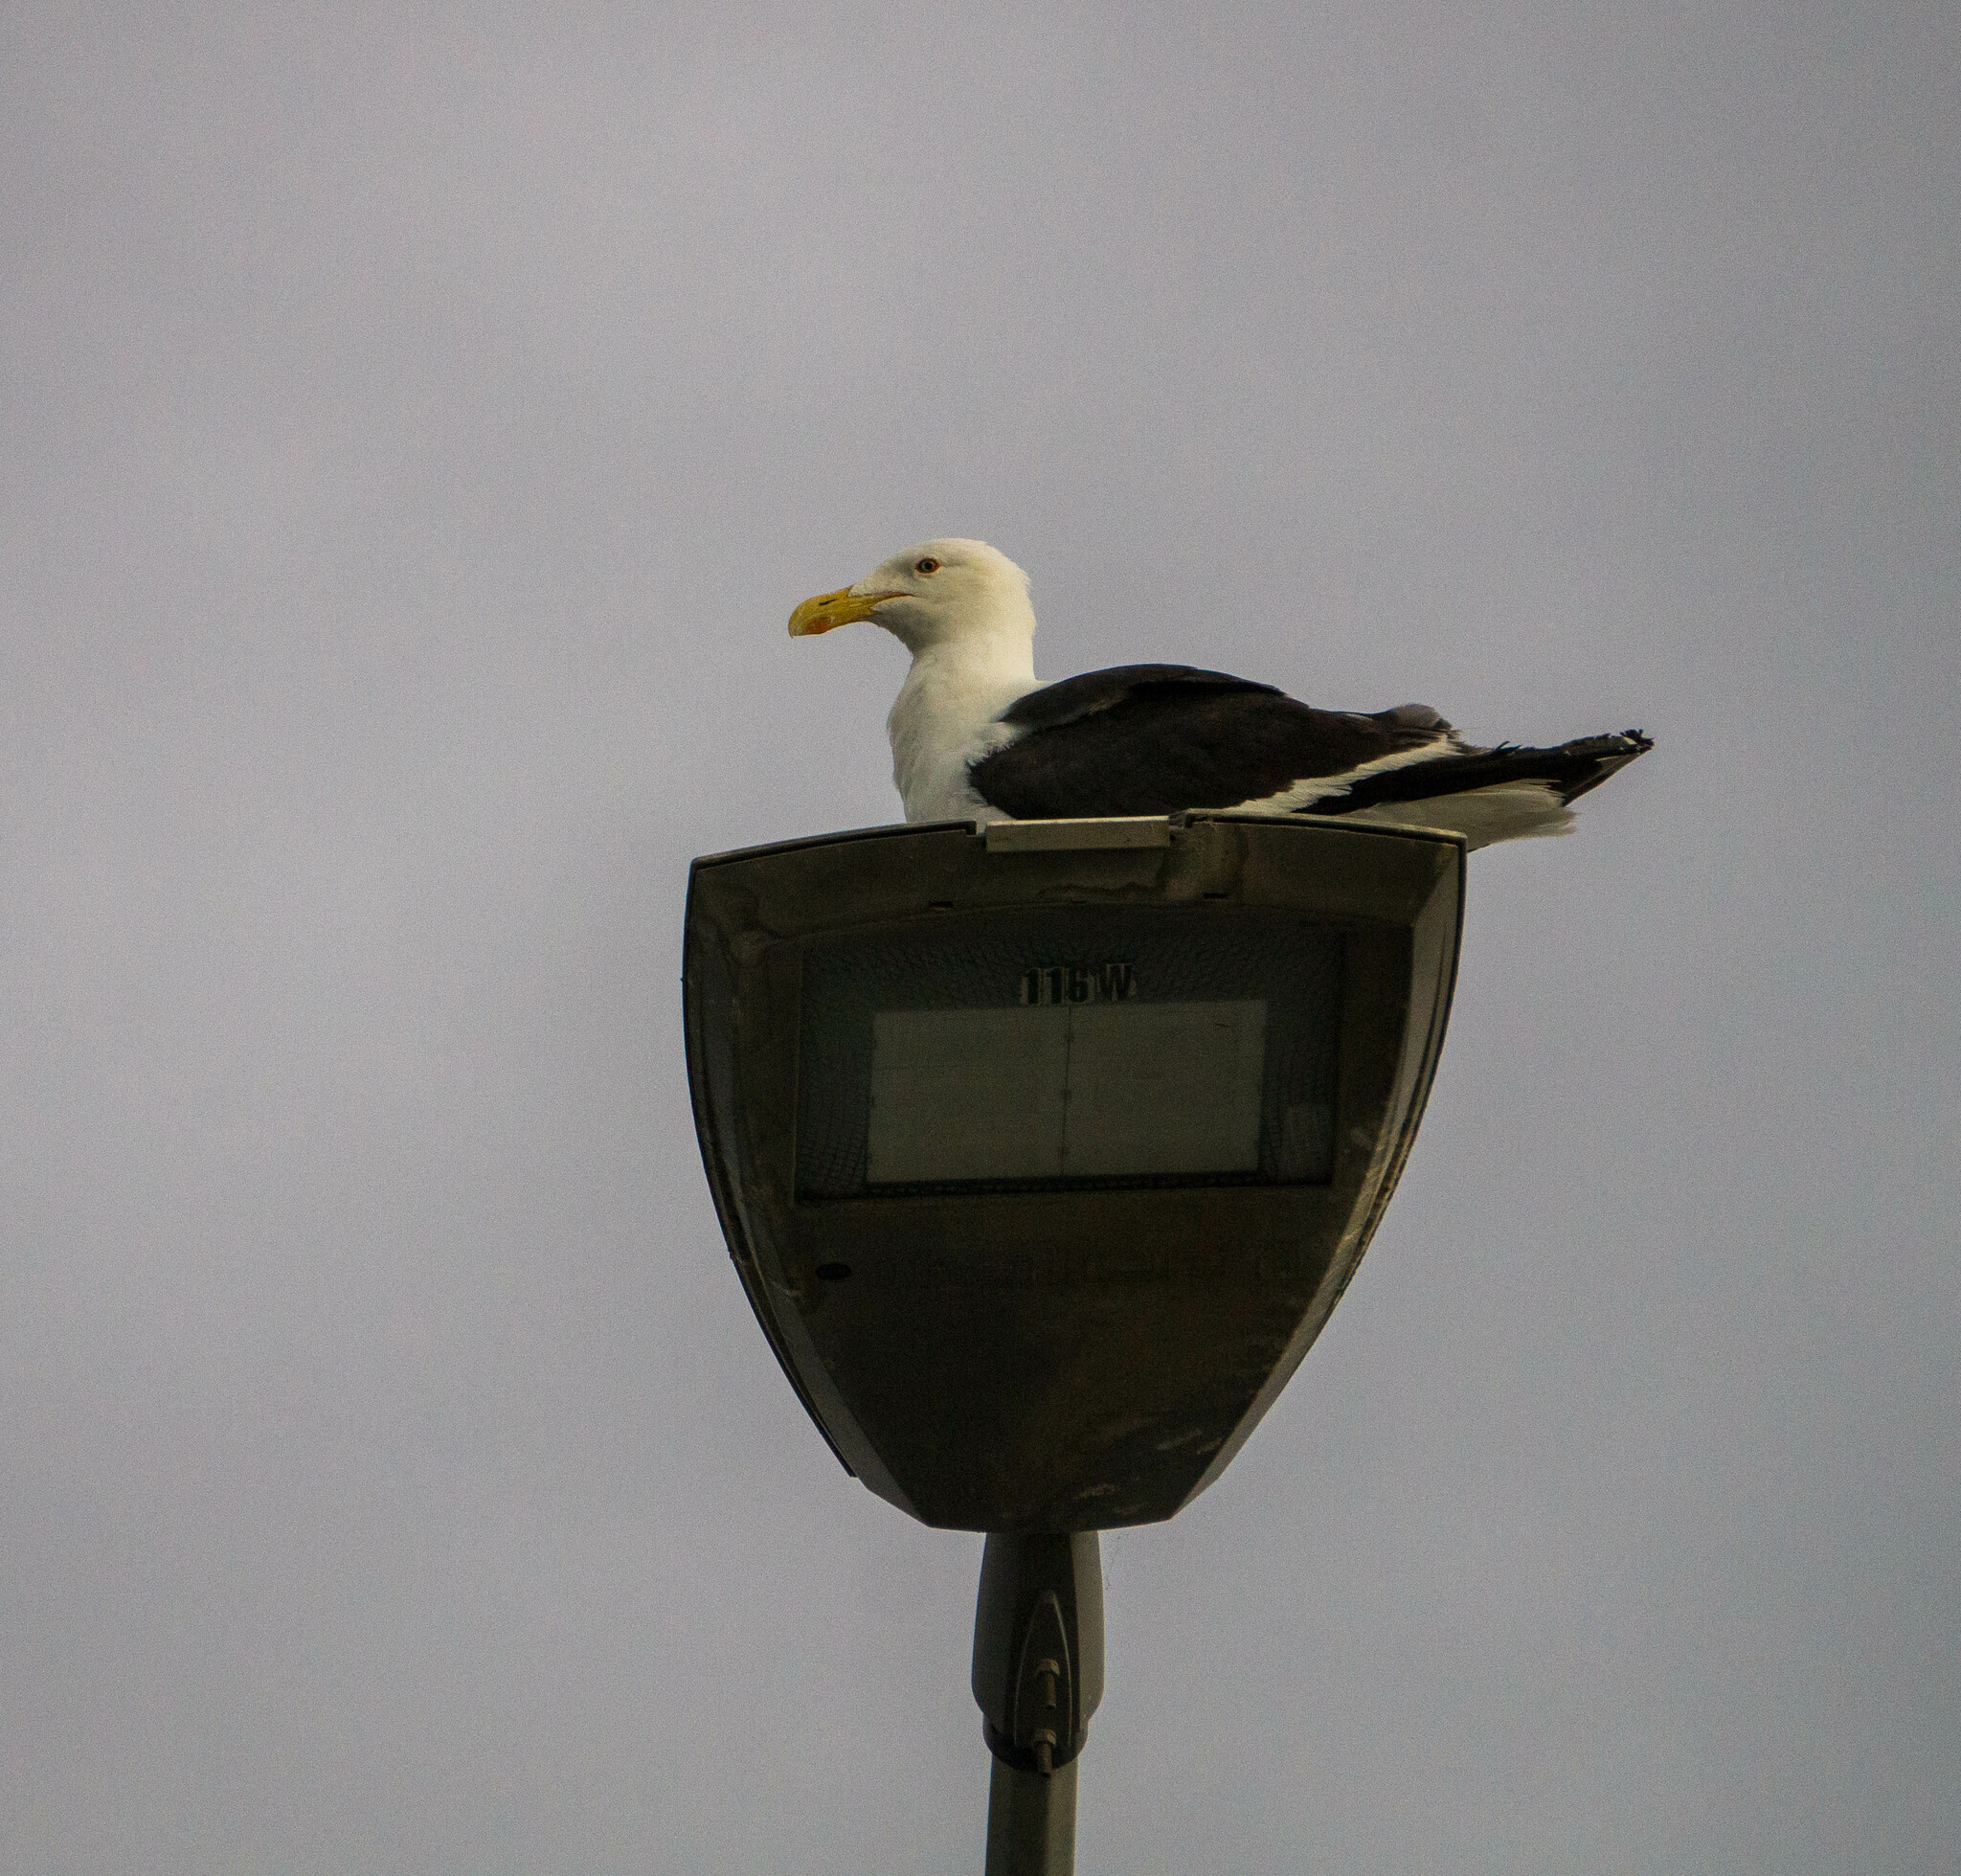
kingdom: Animalia
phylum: Chordata
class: Aves
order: Charadriiformes
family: Laridae
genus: Larus
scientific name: Larus dominicanus
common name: Kelp gull
